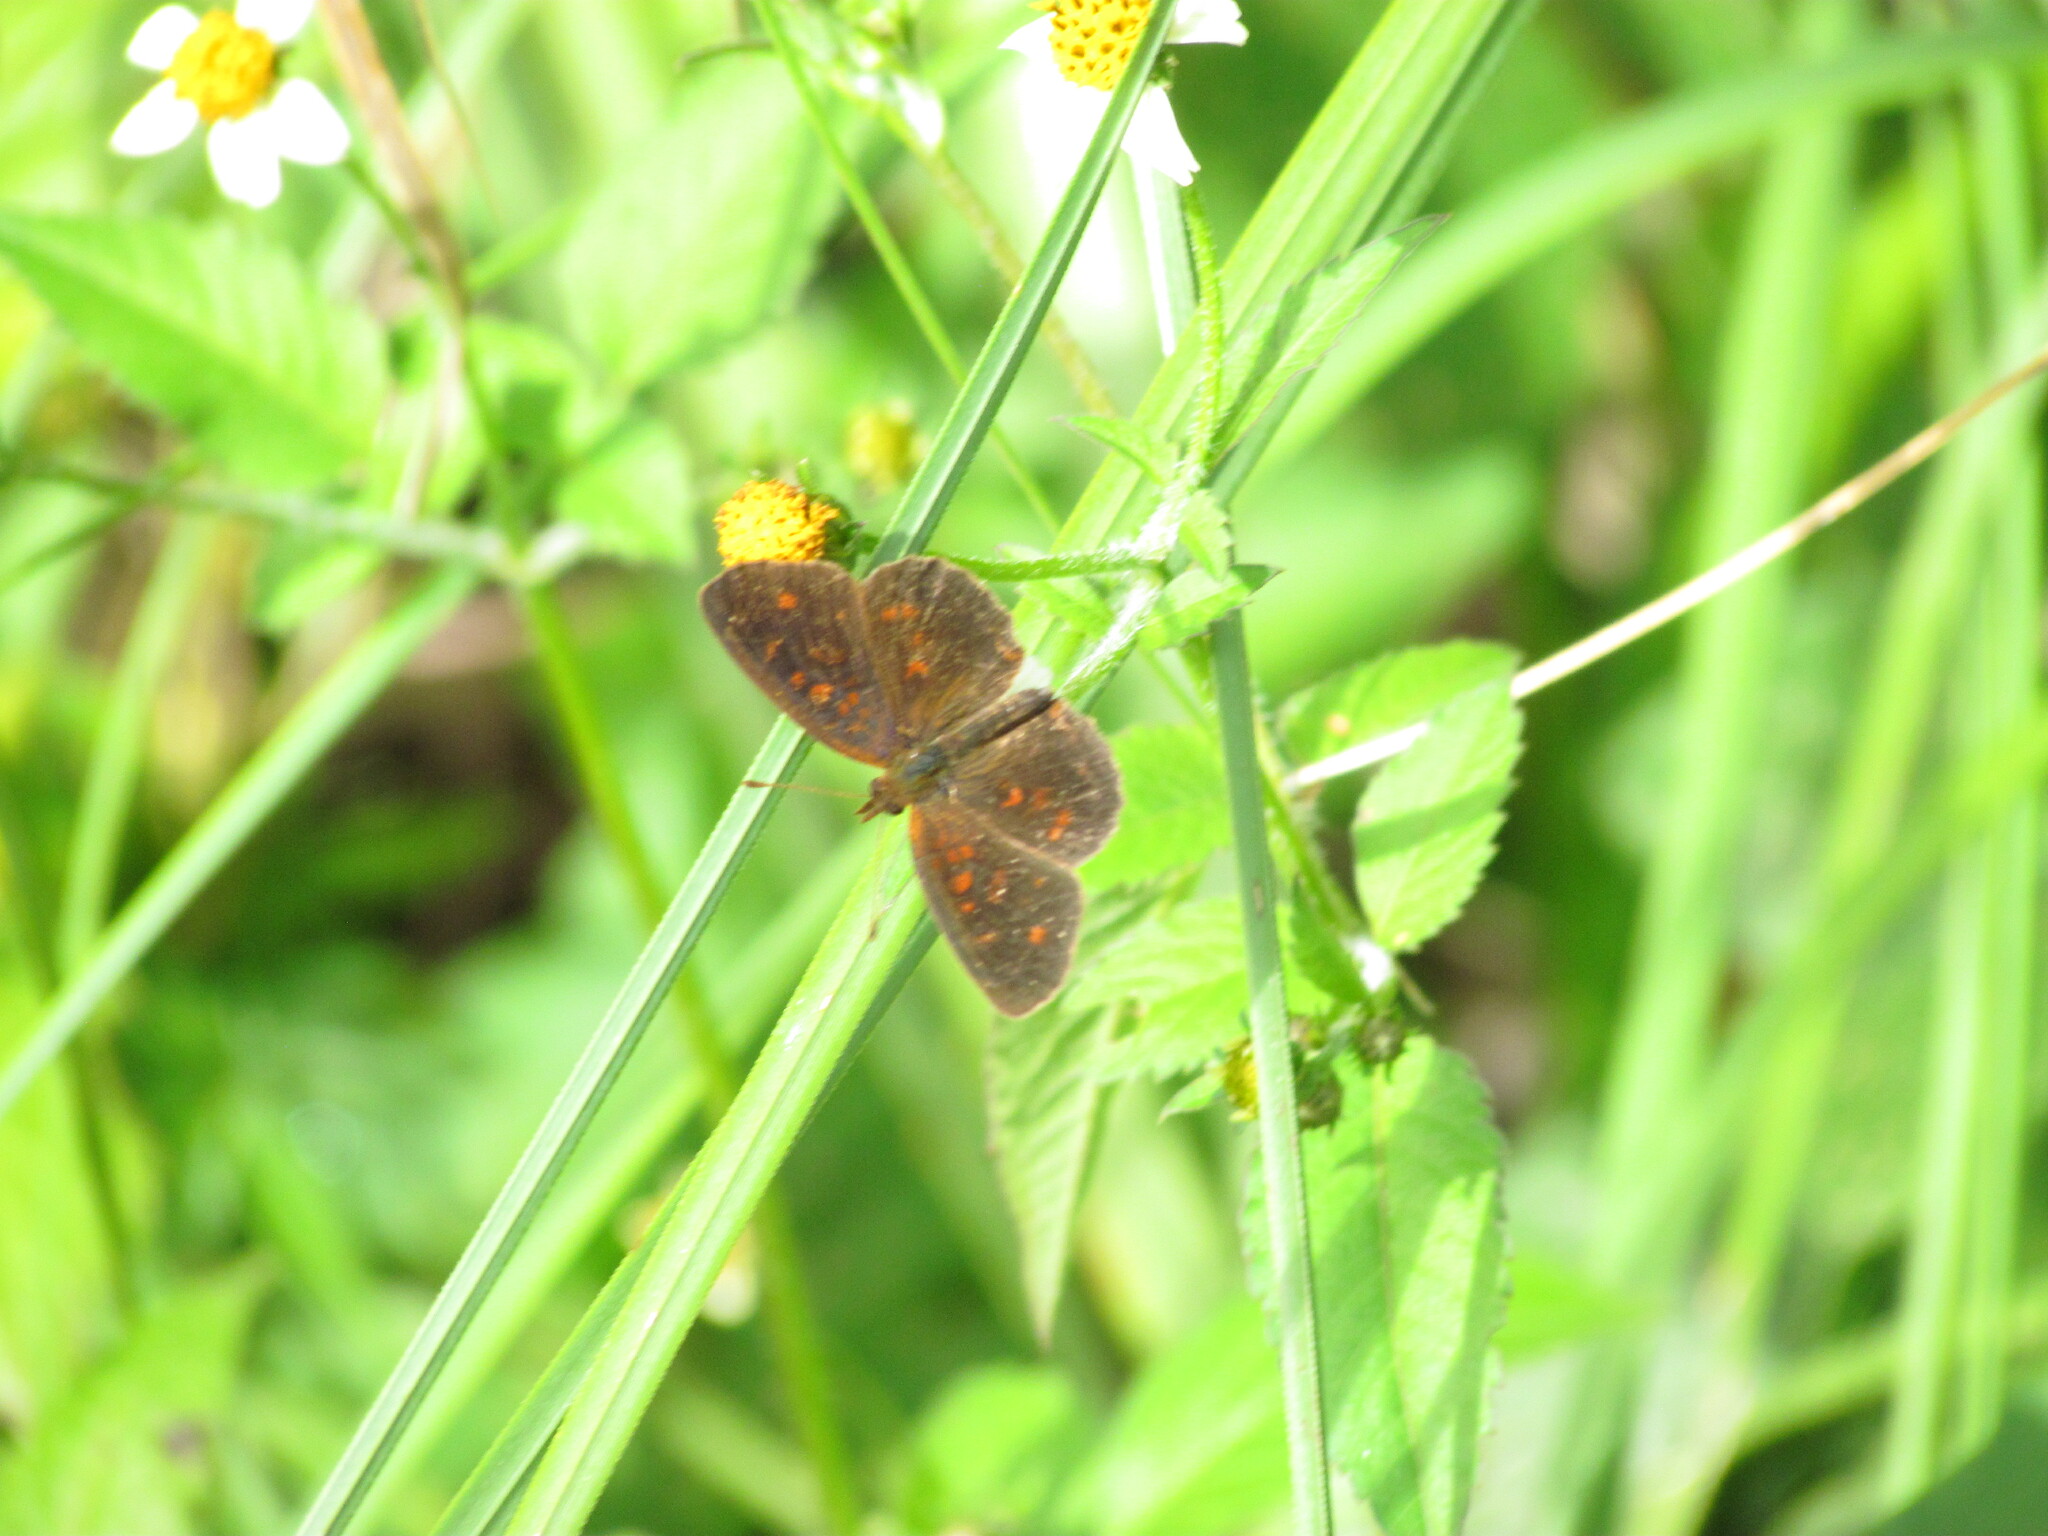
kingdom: Animalia
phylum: Arthropoda
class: Insecta
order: Lepidoptera
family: Nymphalidae
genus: Ortilia
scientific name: Ortilia velica
